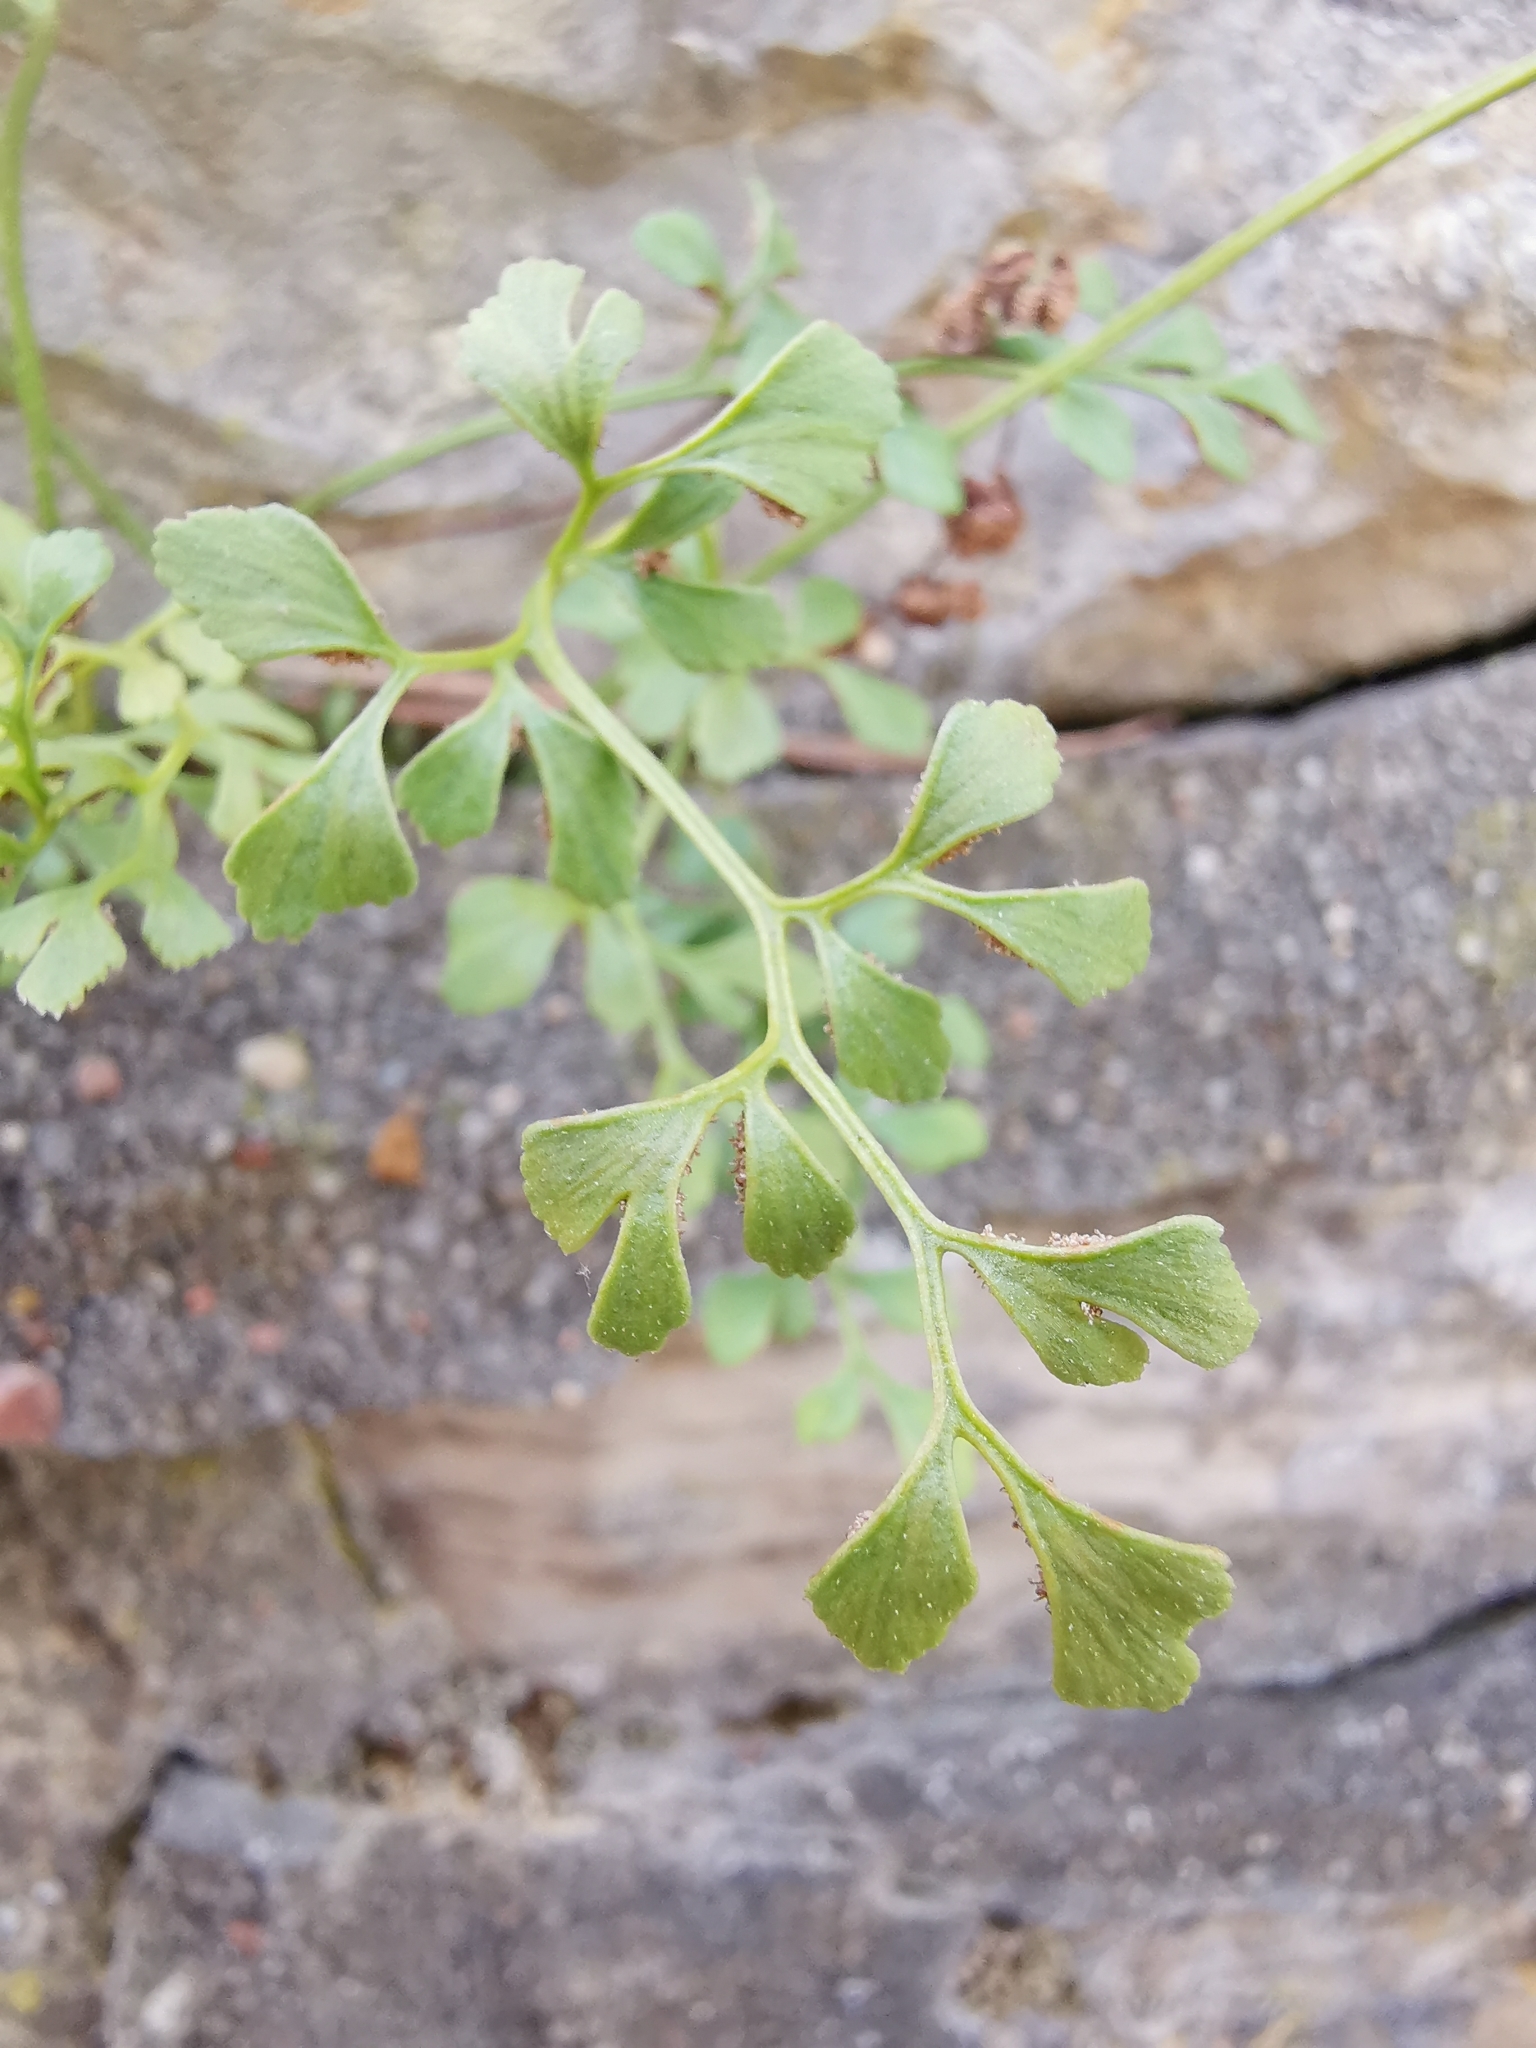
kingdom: Plantae
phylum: Tracheophyta
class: Polypodiopsida
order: Polypodiales
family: Aspleniaceae
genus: Asplenium
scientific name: Asplenium ruta-muraria
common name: Wall-rue
